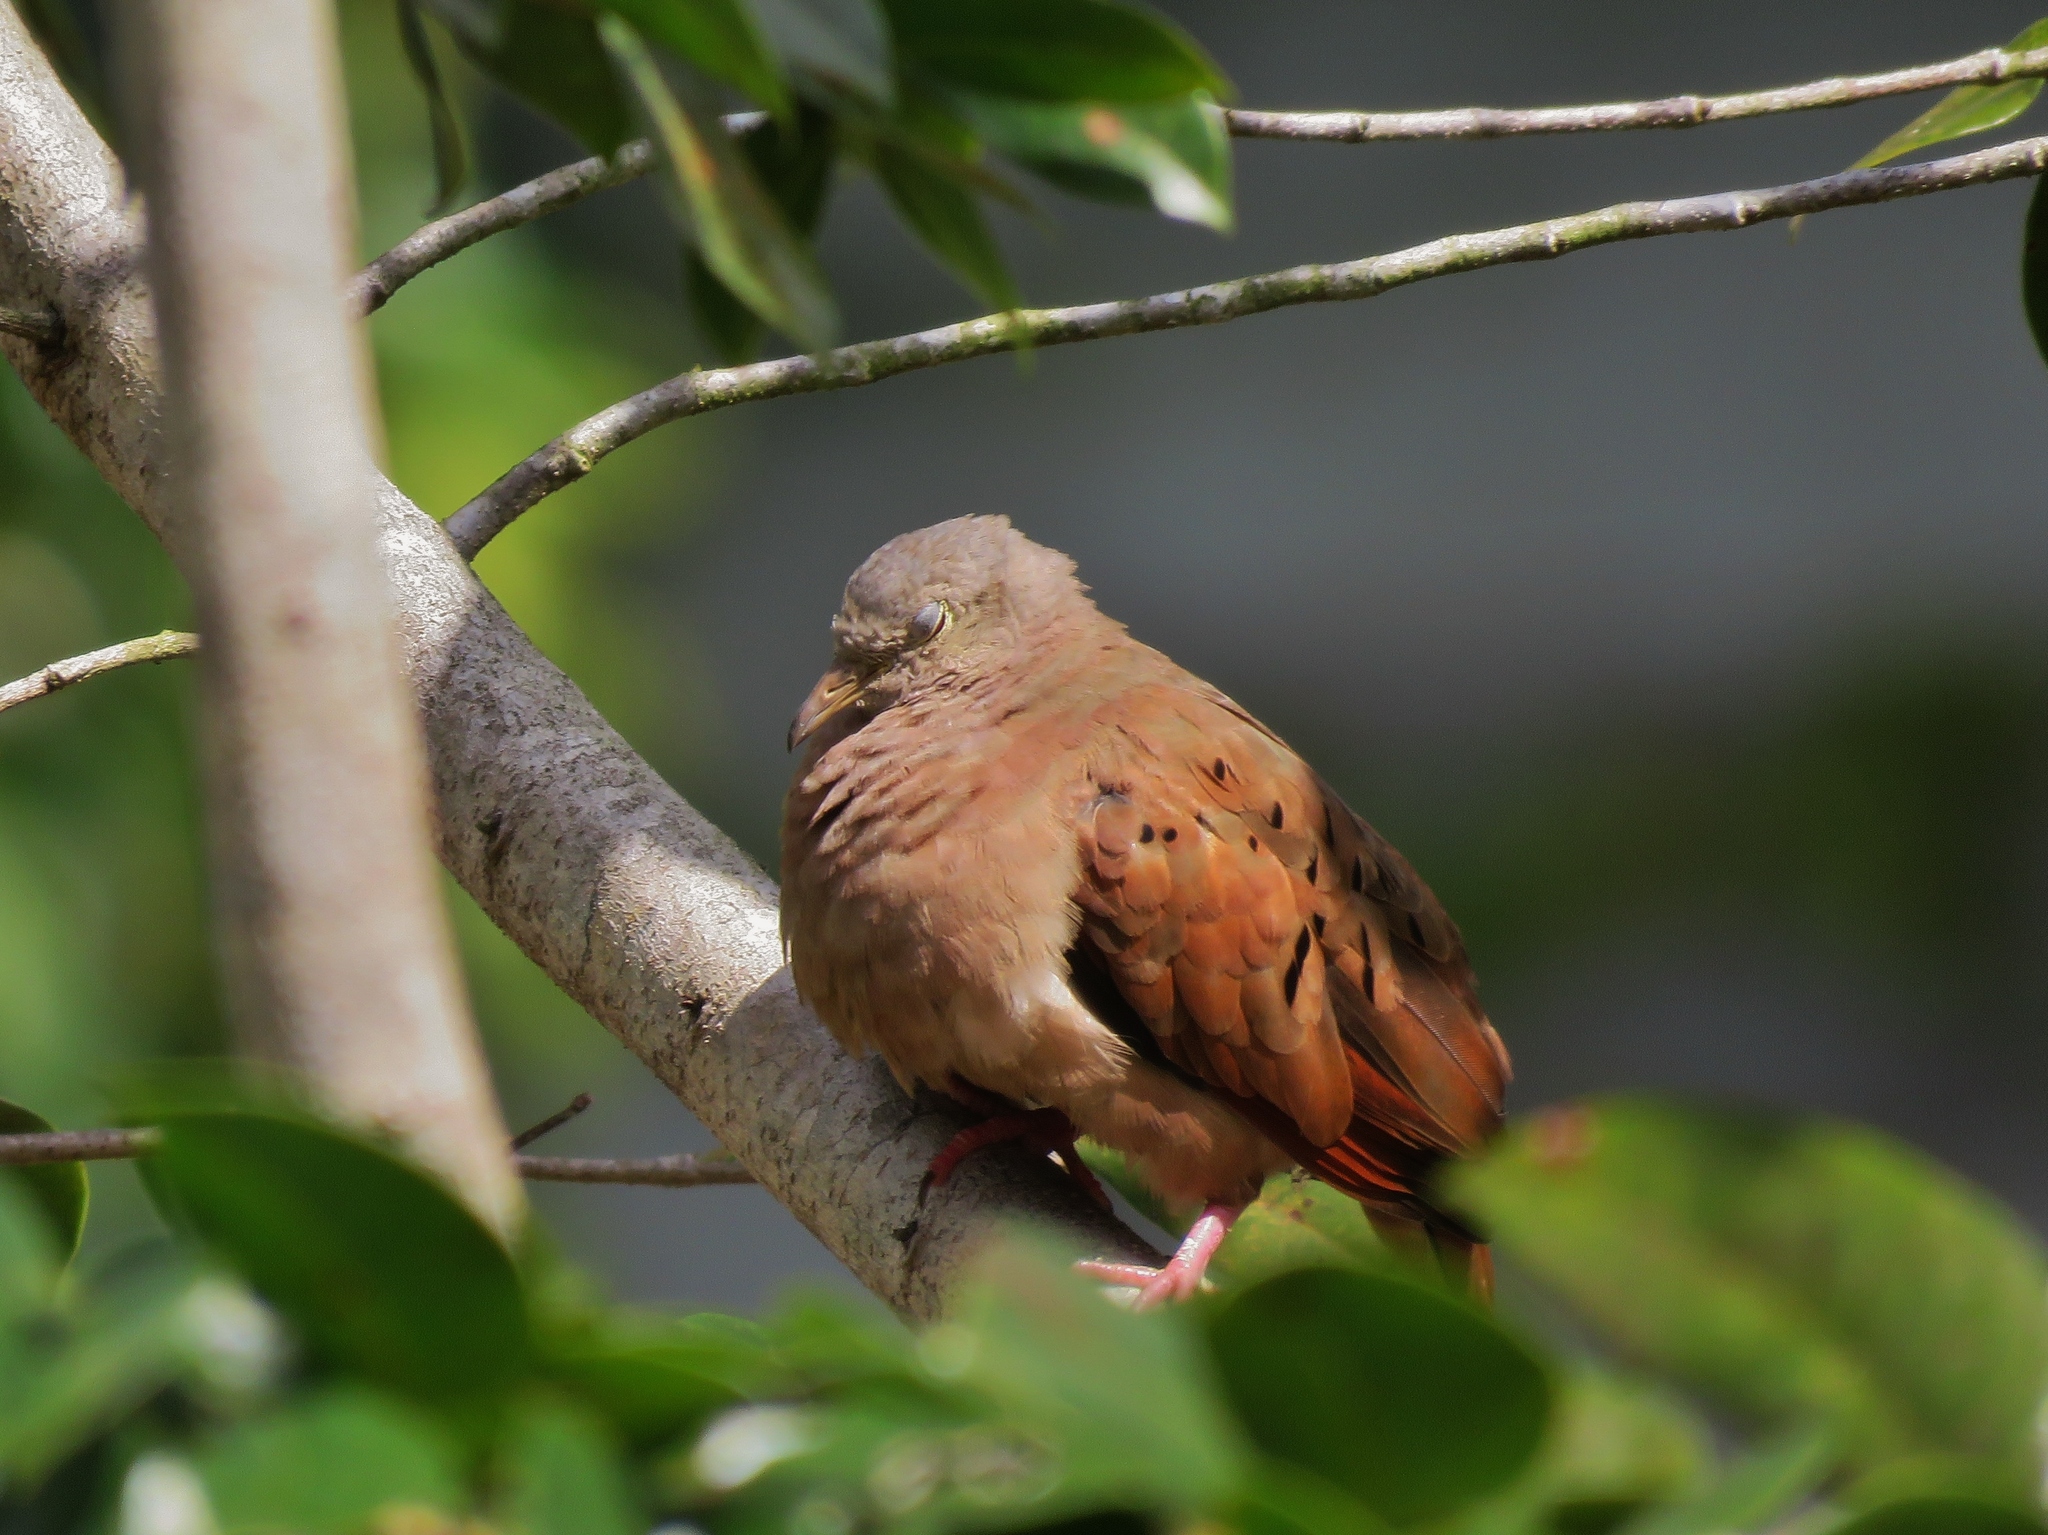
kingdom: Animalia
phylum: Chordata
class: Aves
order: Columbiformes
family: Columbidae
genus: Columbina
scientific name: Columbina talpacoti
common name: Ruddy ground dove
